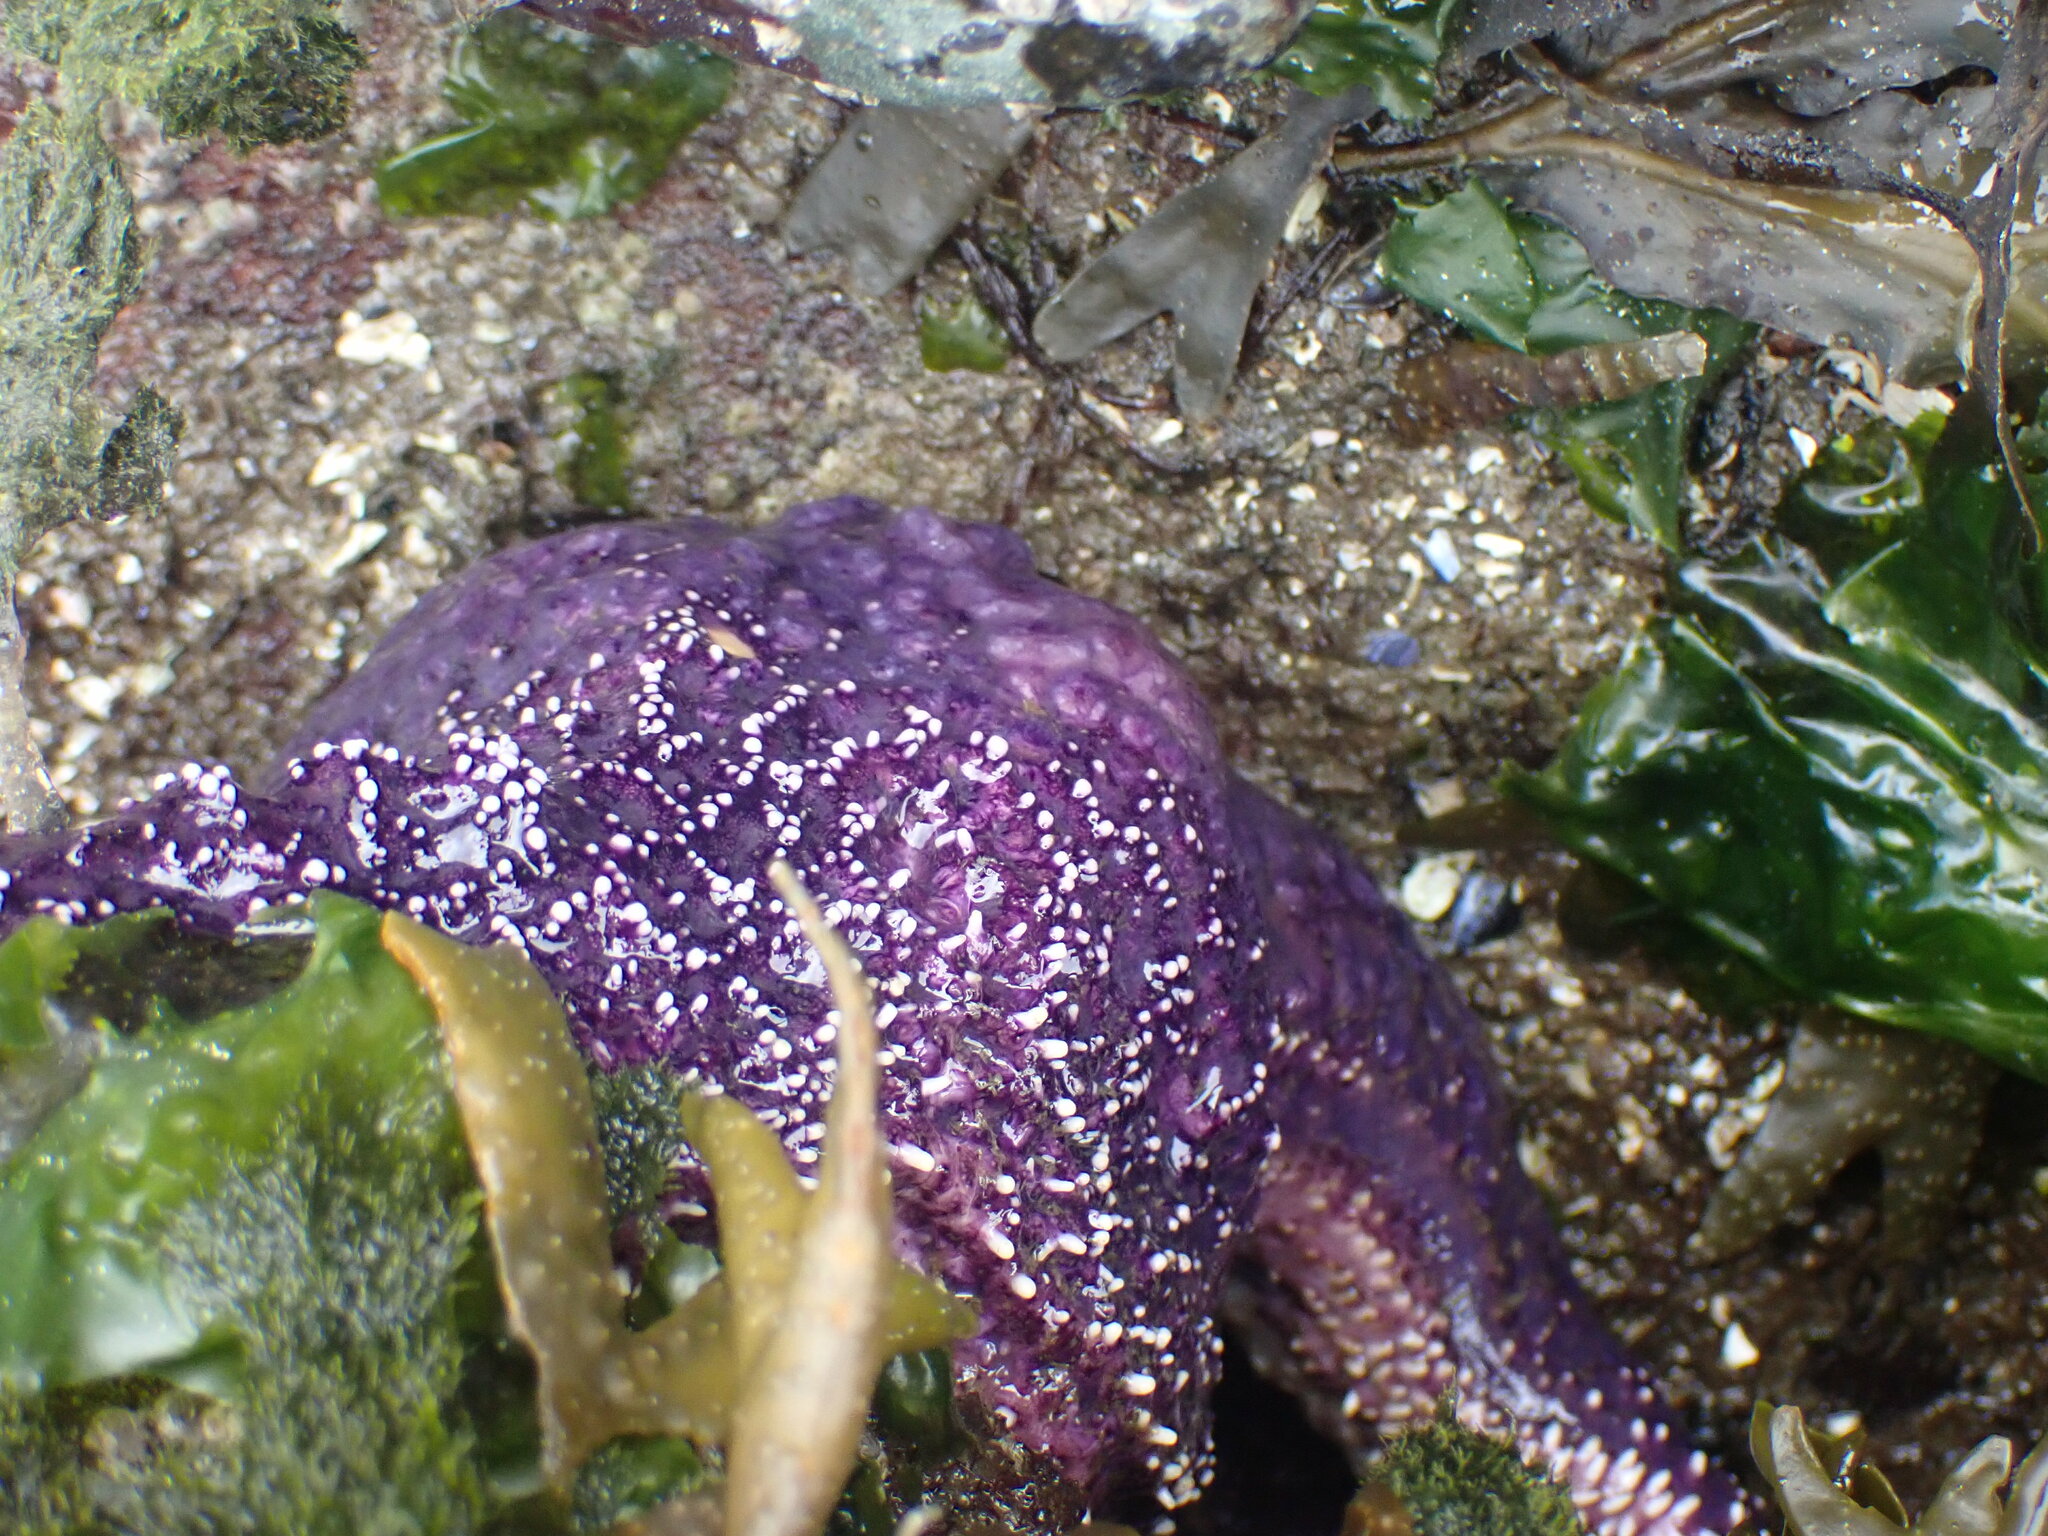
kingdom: Animalia
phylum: Echinodermata
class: Asteroidea
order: Forcipulatida
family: Asteriidae
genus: Pisaster
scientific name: Pisaster ochraceus
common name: Ochre stars
